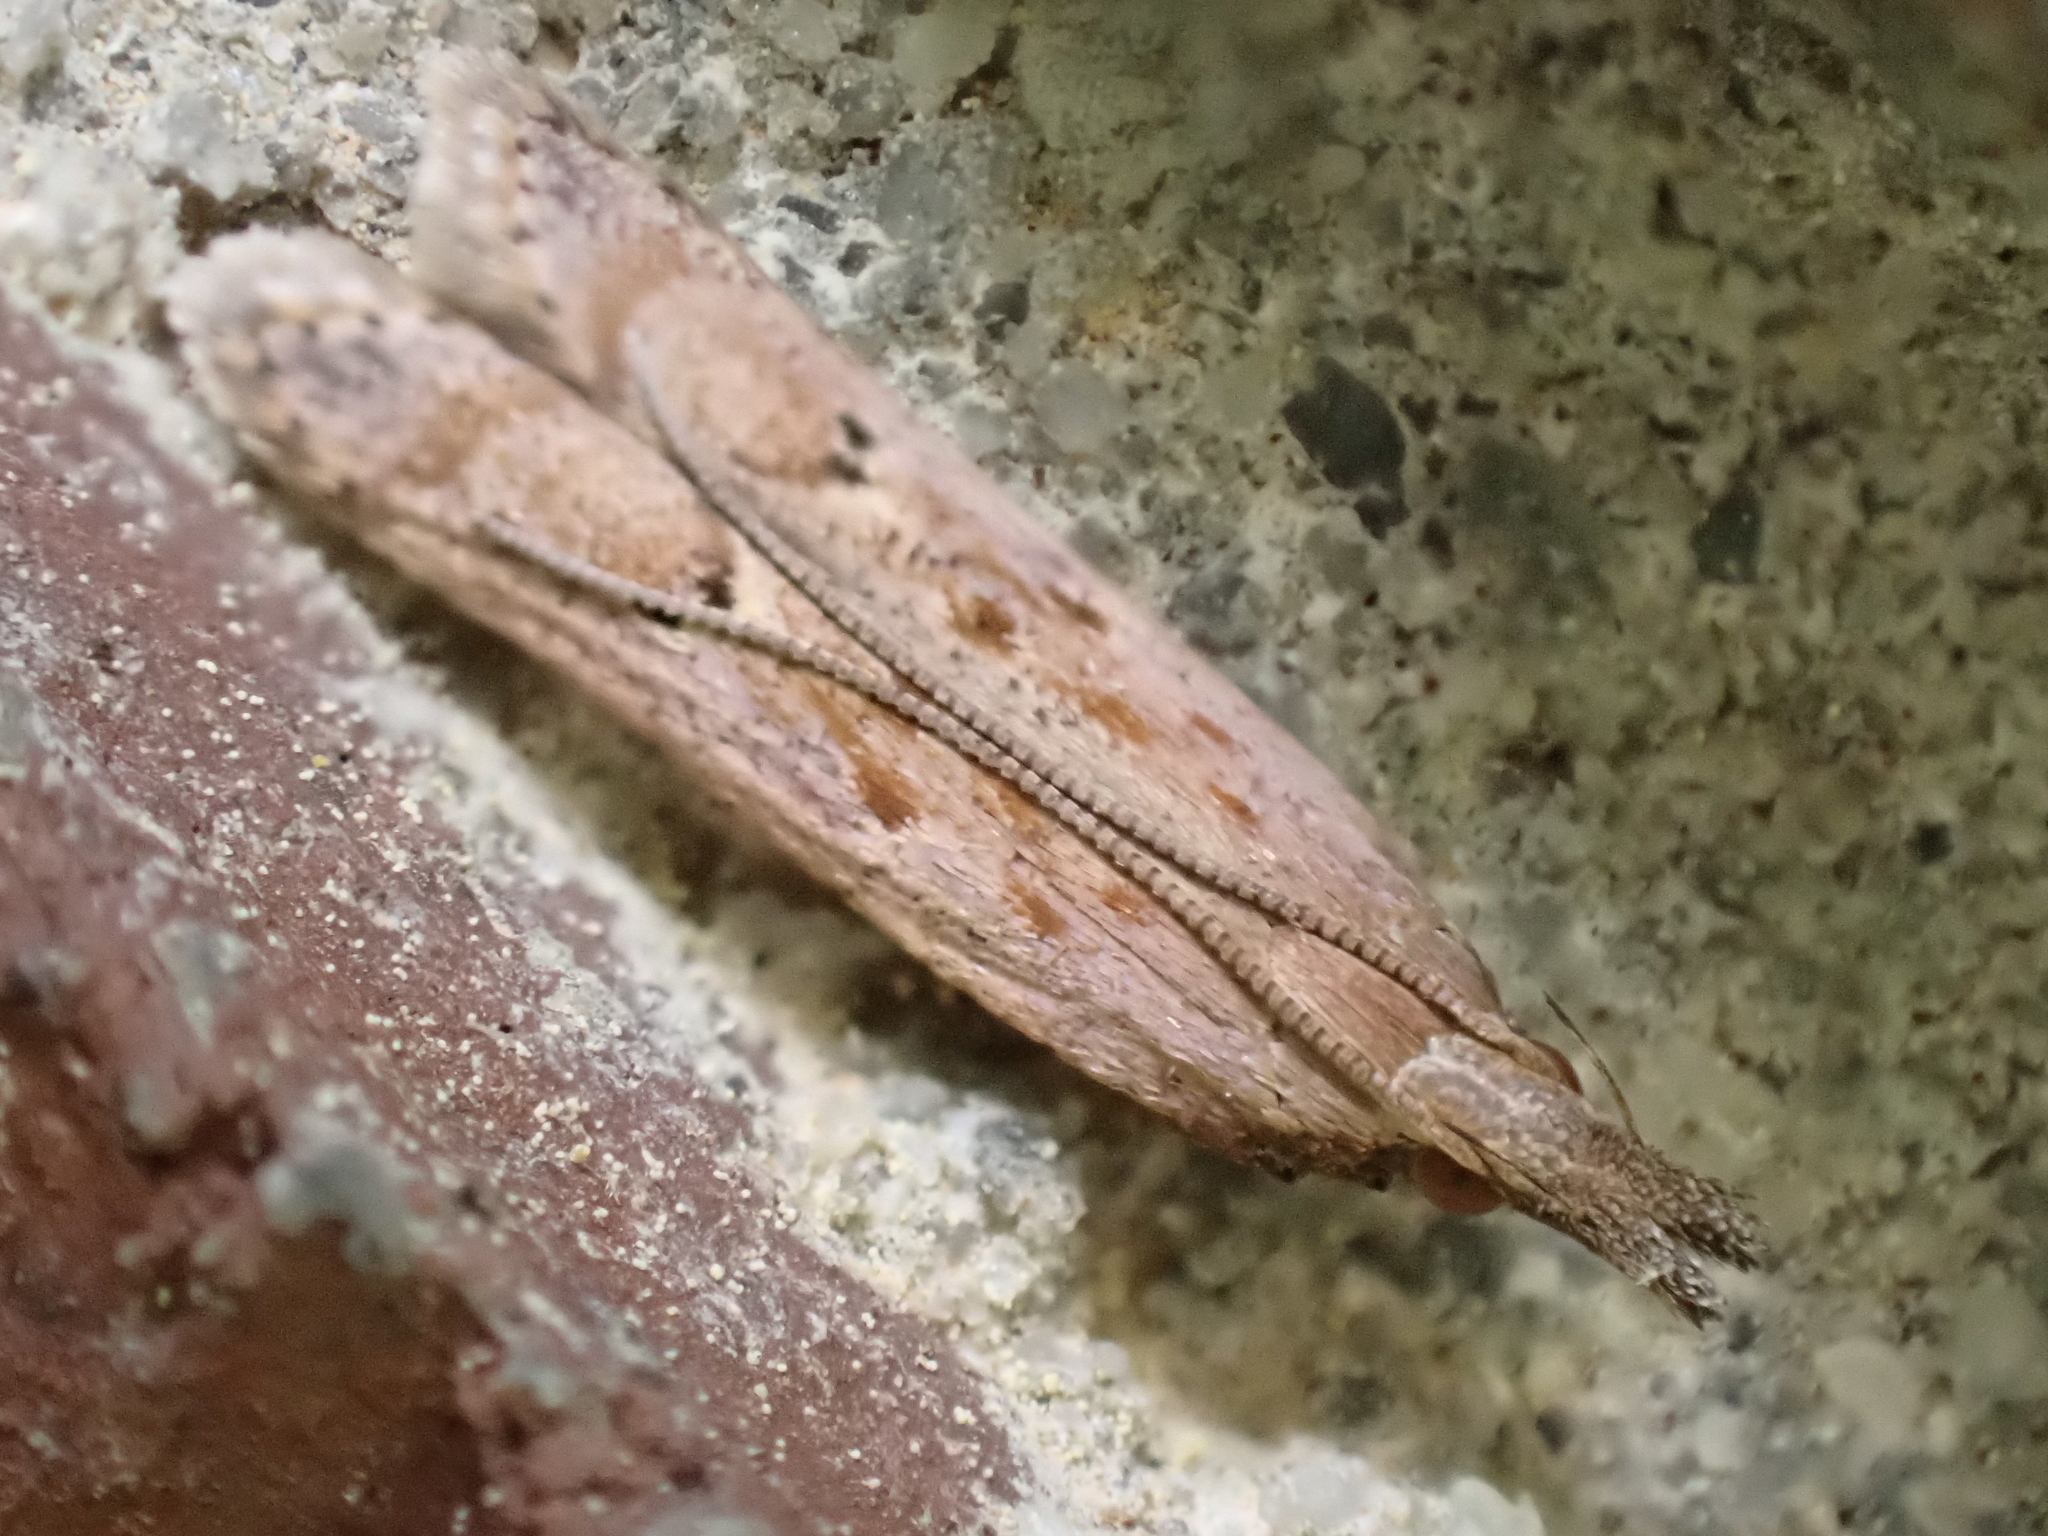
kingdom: Animalia
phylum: Arthropoda
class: Insecta
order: Lepidoptera
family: Gelechiidae
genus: Dichomeris
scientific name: Dichomeris ligulella
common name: Moth
